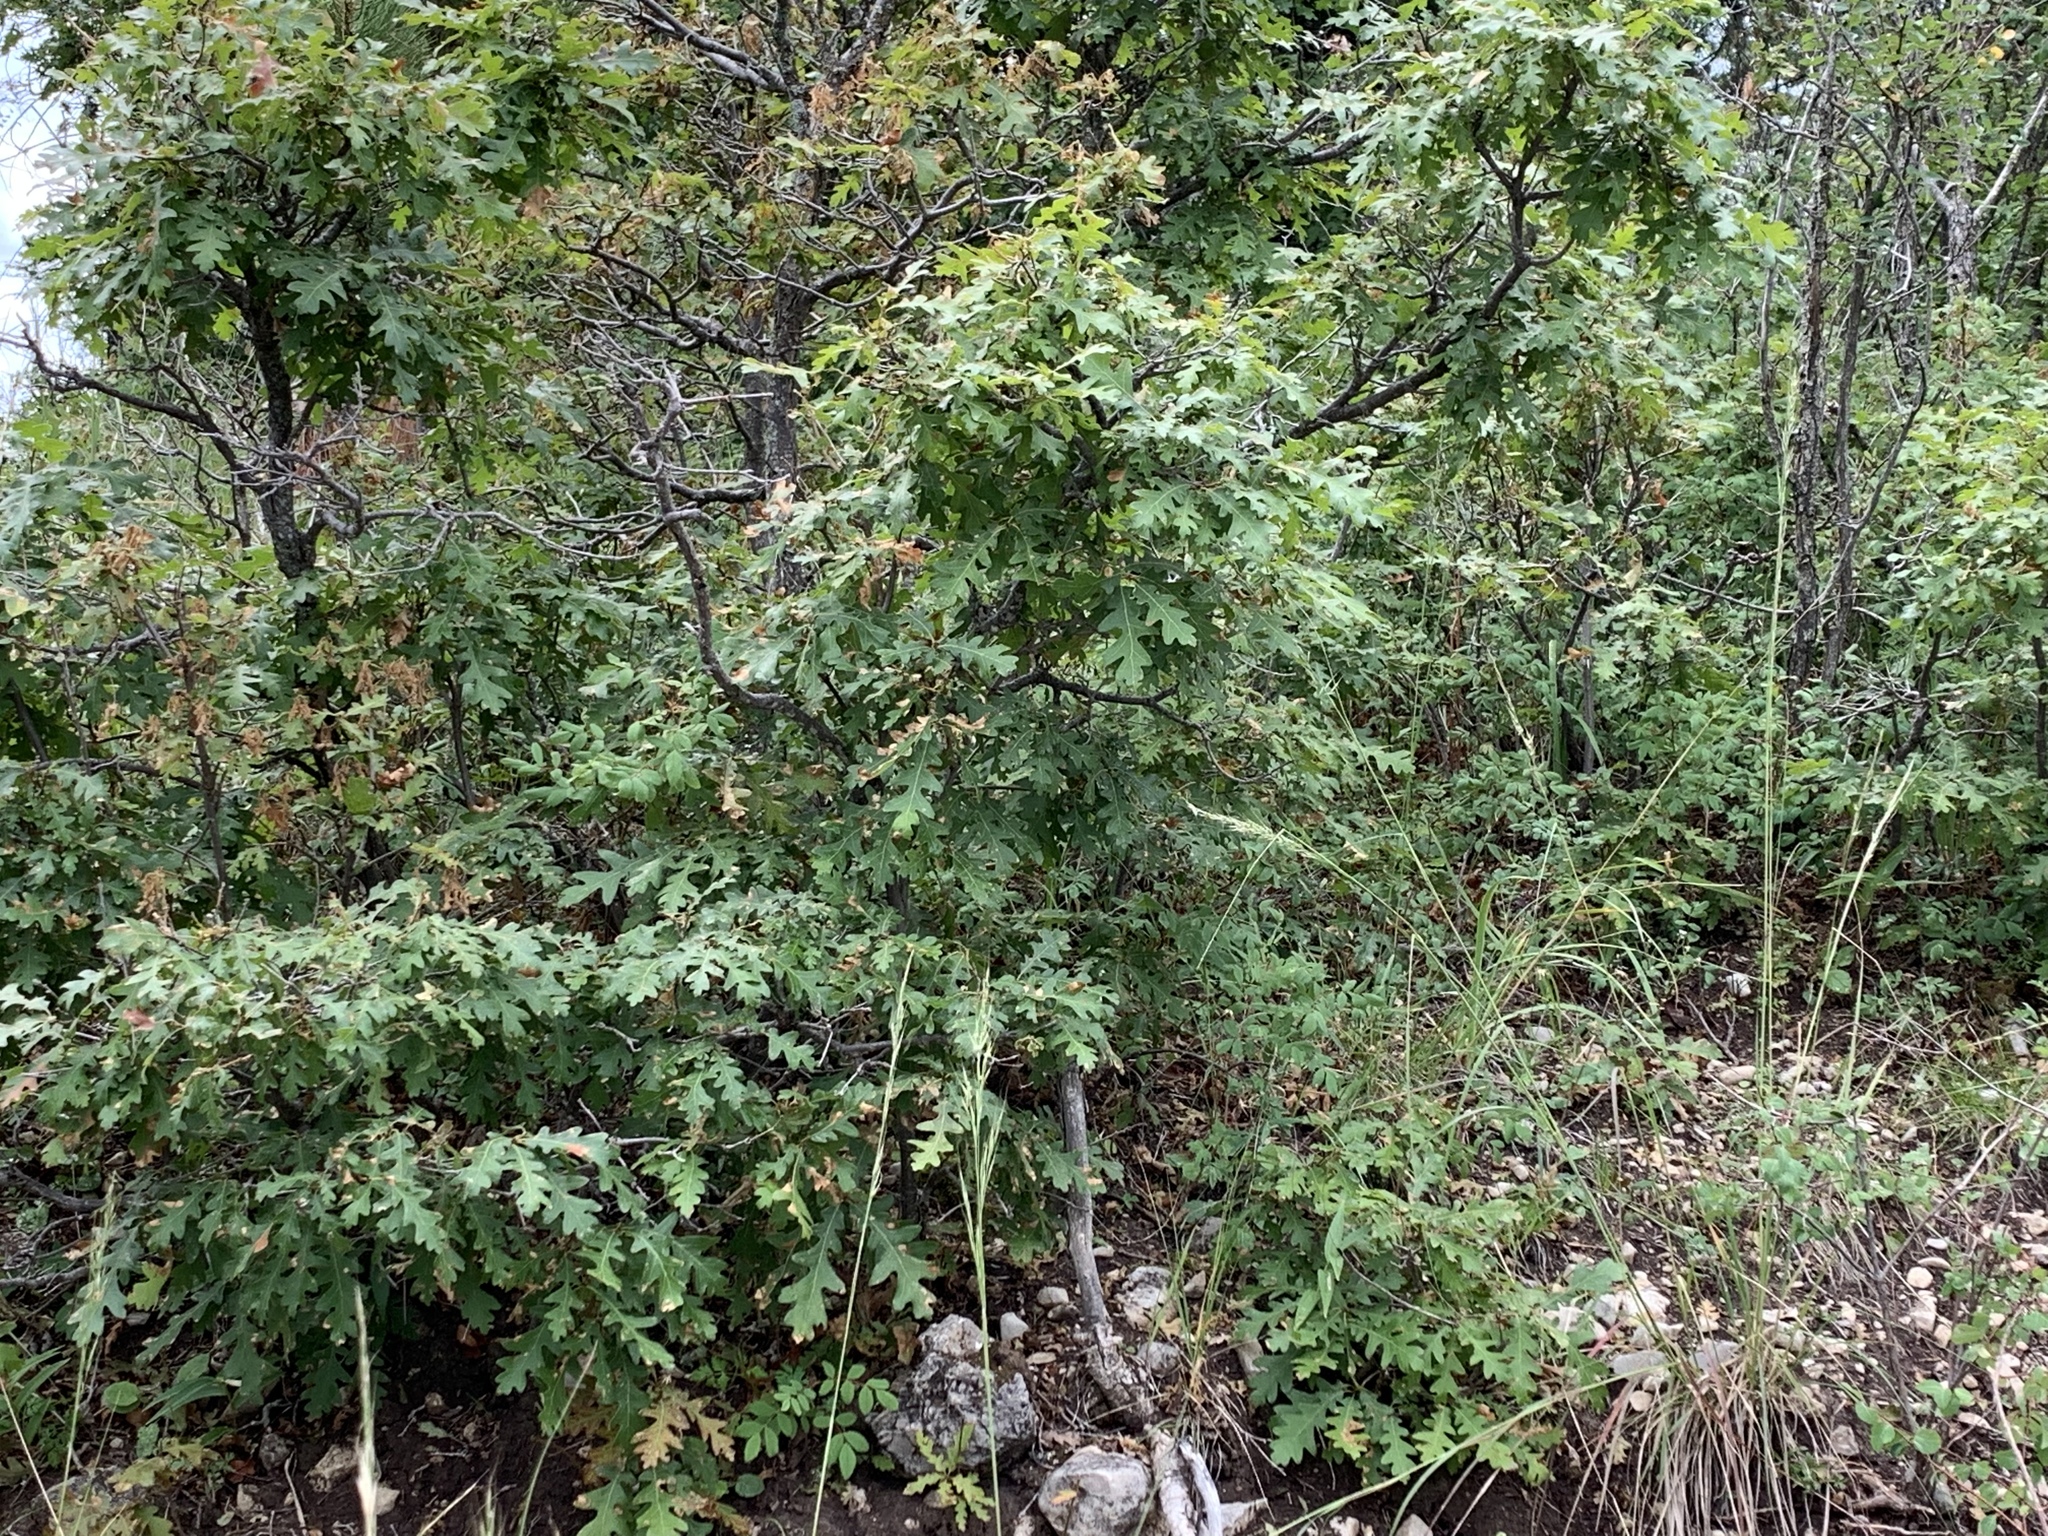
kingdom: Plantae
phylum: Tracheophyta
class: Magnoliopsida
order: Fagales
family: Fagaceae
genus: Quercus
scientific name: Quercus gambelii
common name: Gambel oak
